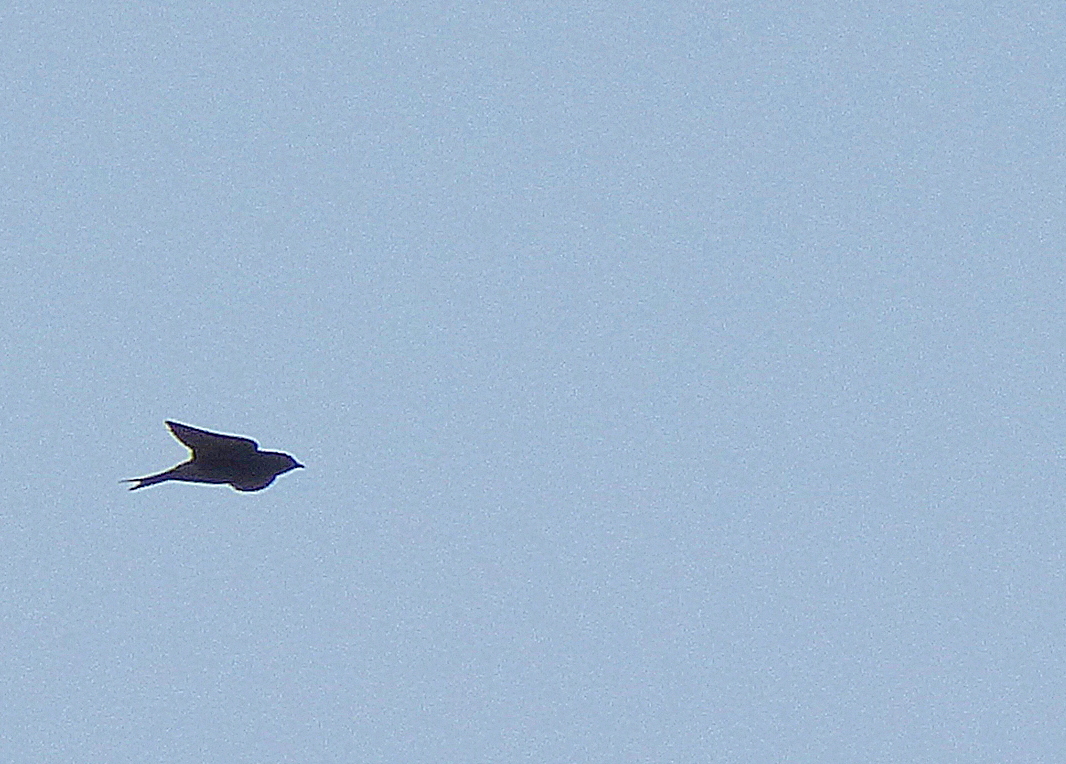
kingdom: Animalia
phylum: Chordata
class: Aves
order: Passeriformes
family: Hirundinidae
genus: Progne
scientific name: Progne elegans
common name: Southern martin
